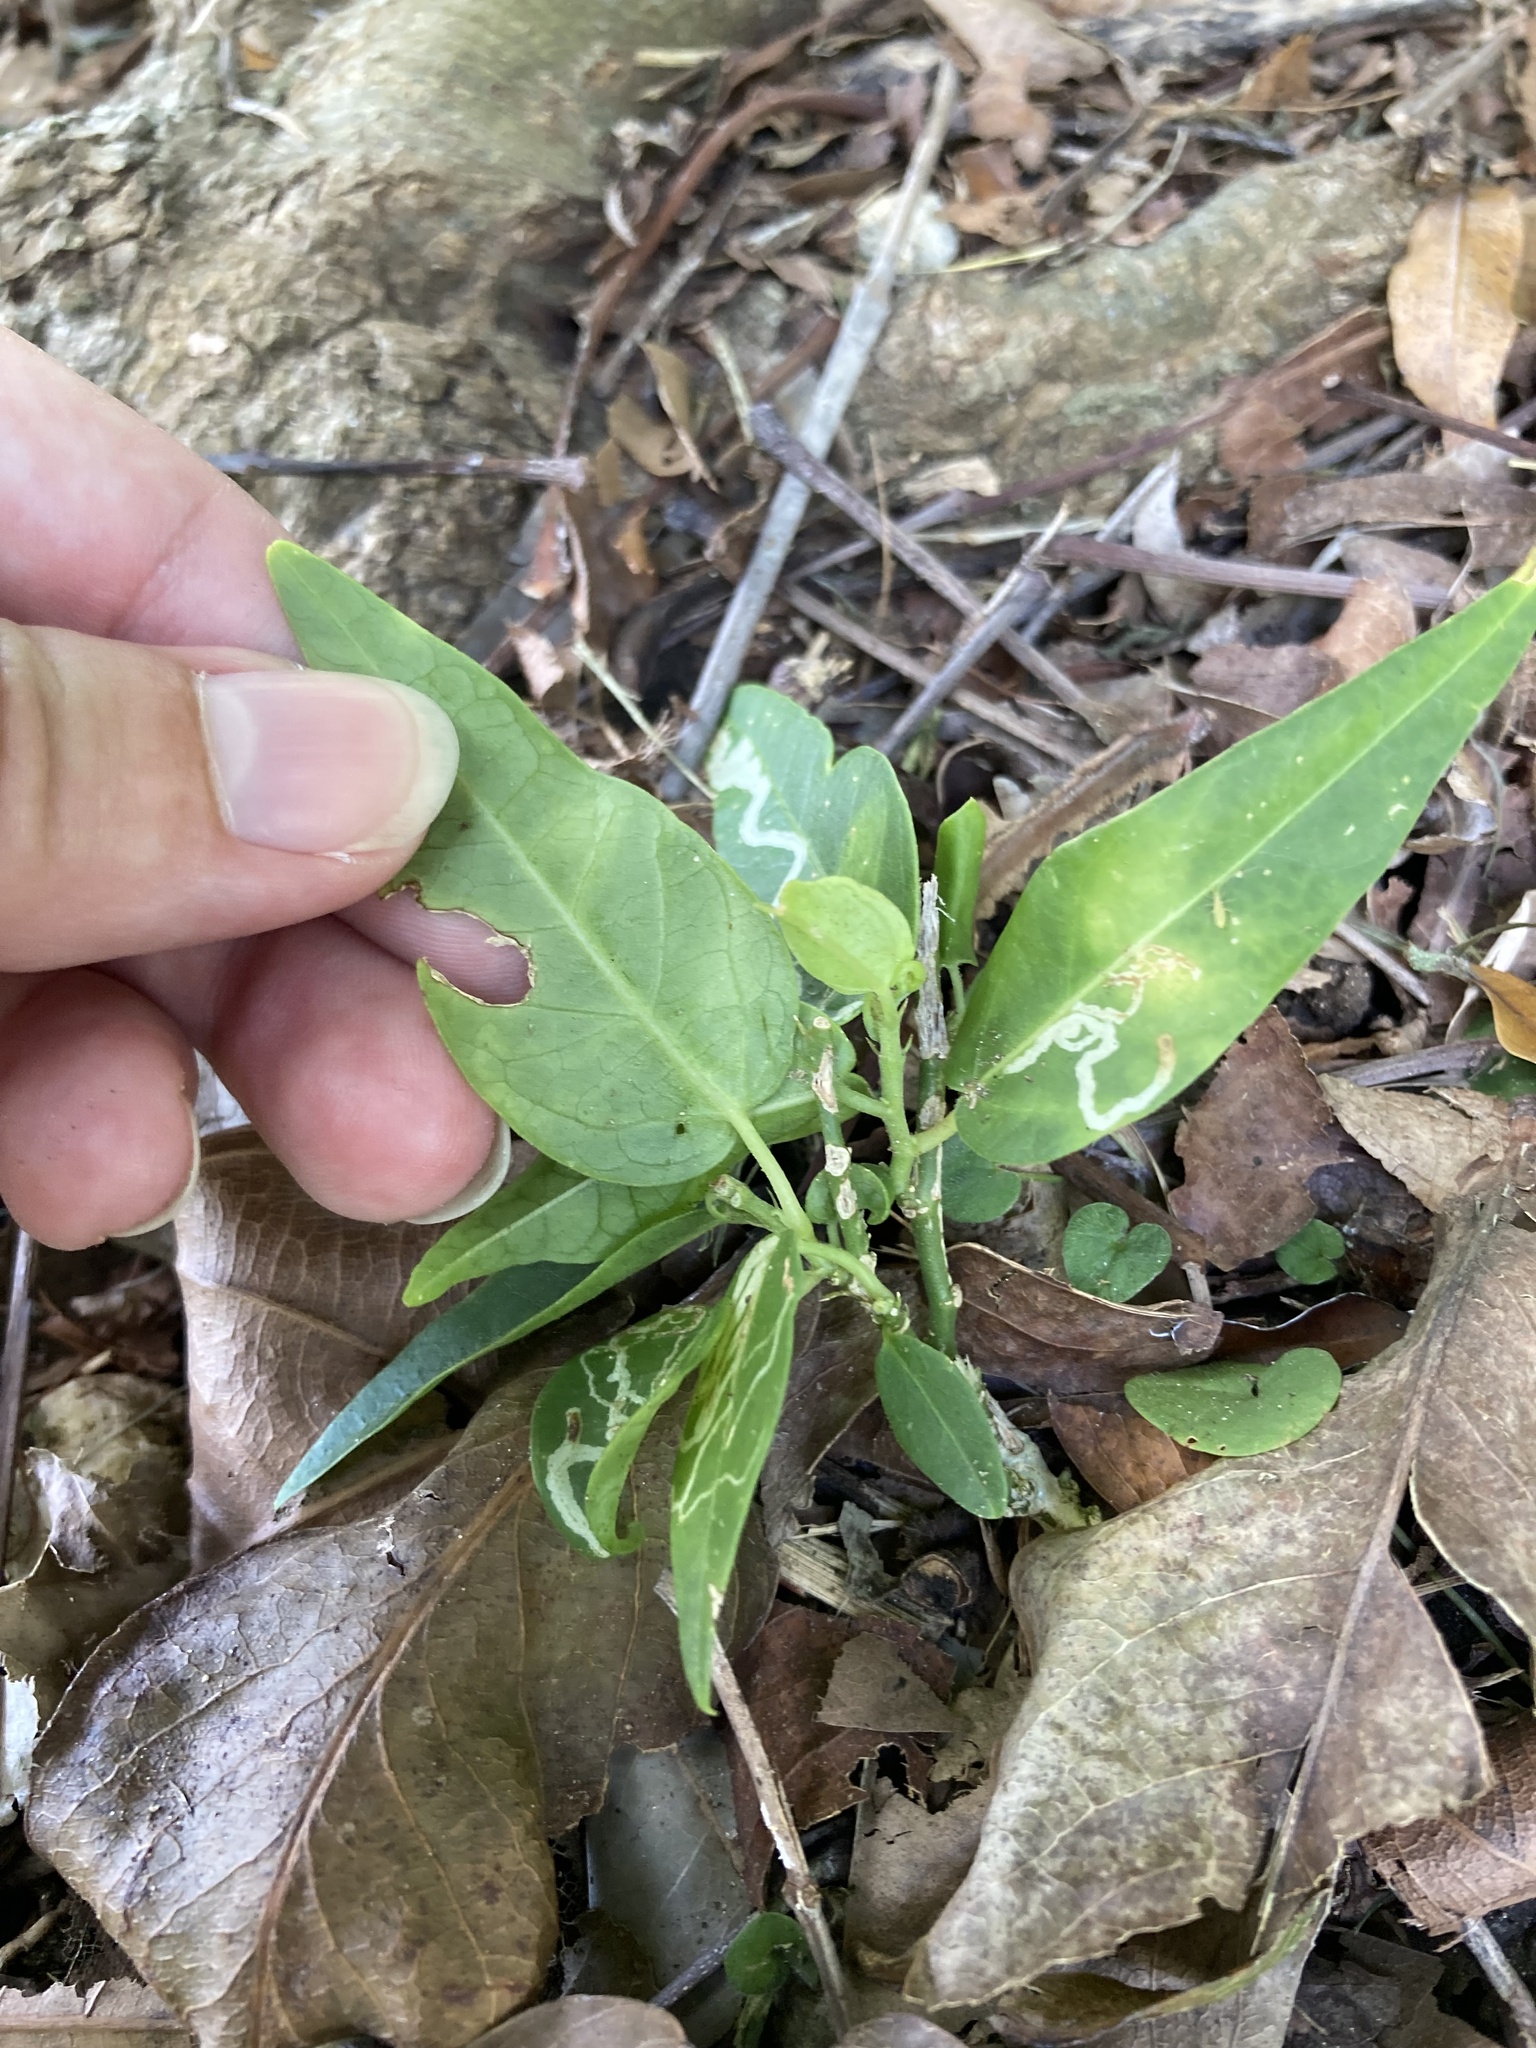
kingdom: Plantae
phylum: Tracheophyta
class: Magnoliopsida
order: Malpighiales
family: Passifloraceae
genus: Passiflora
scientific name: Passiflora pallida
